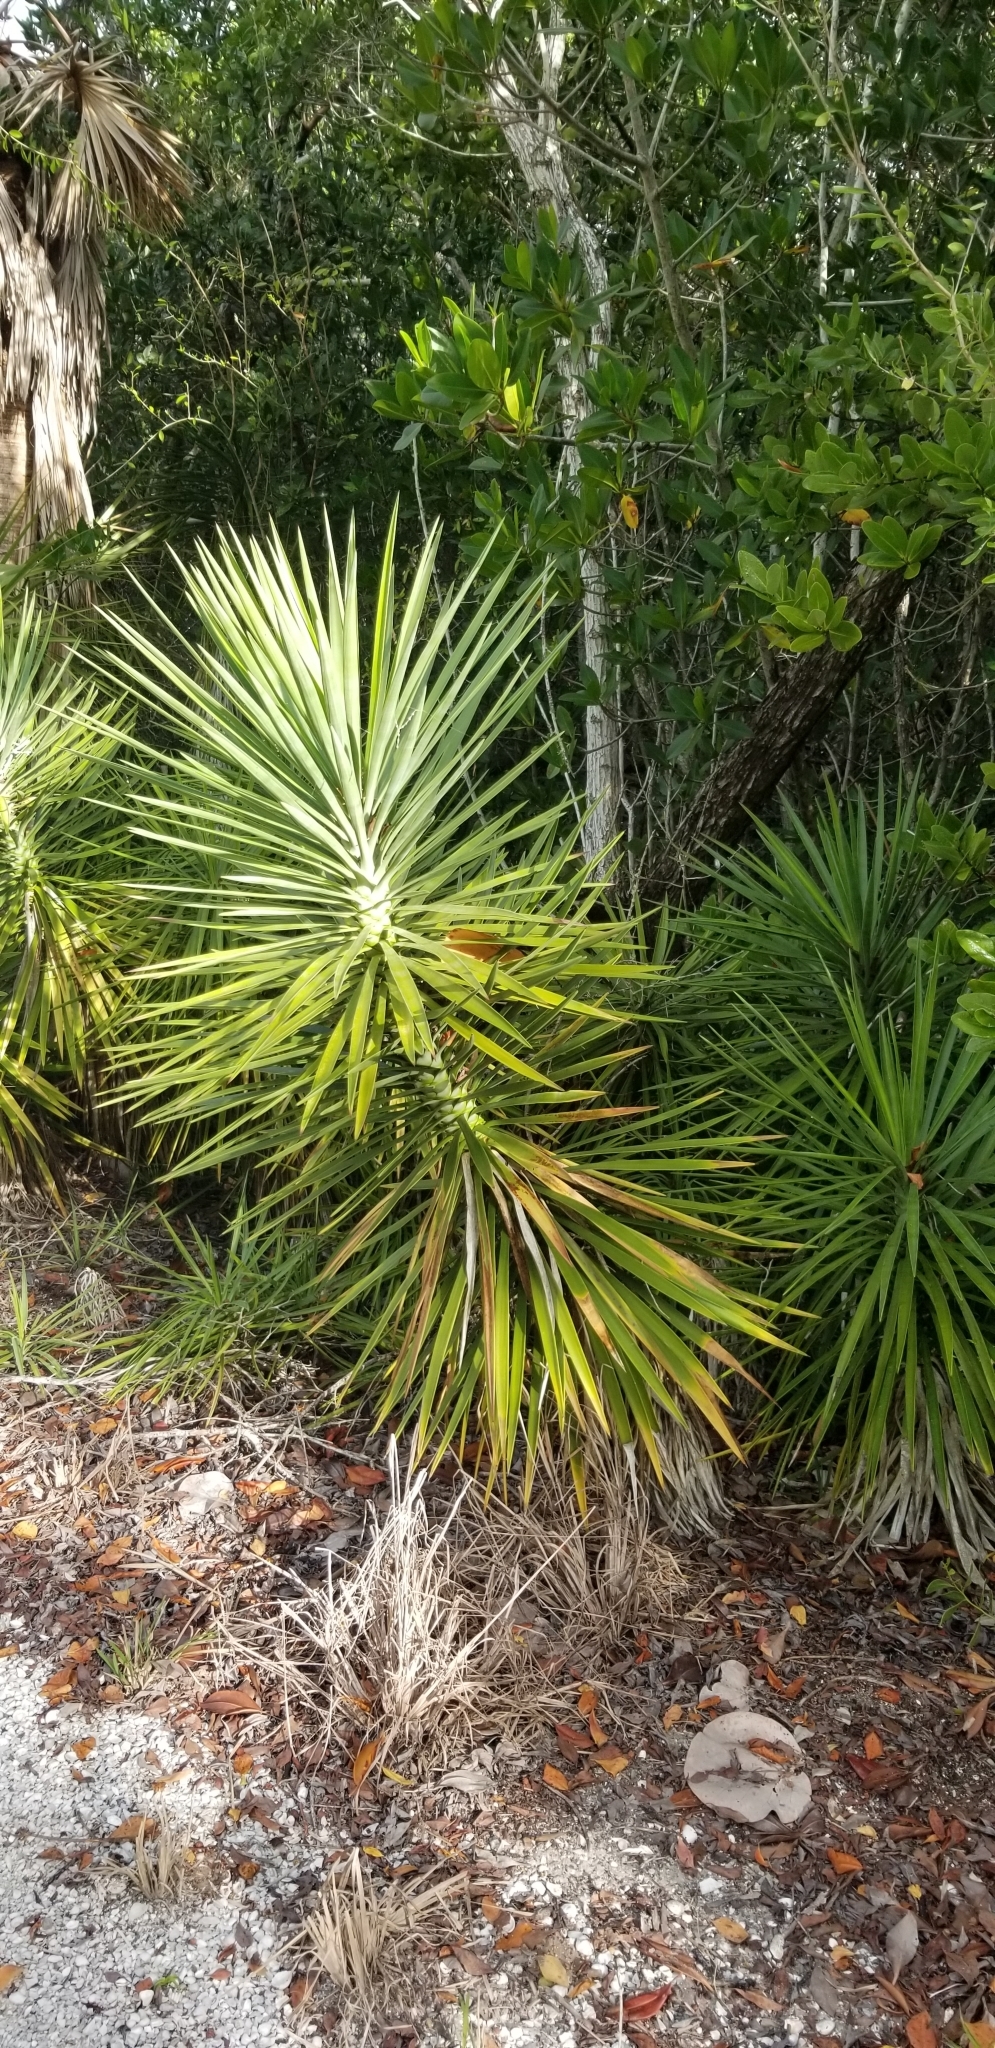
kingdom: Plantae
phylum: Tracheophyta
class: Liliopsida
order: Asparagales
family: Asparagaceae
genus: Yucca
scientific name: Yucca aloifolia
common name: Aloe yucca
